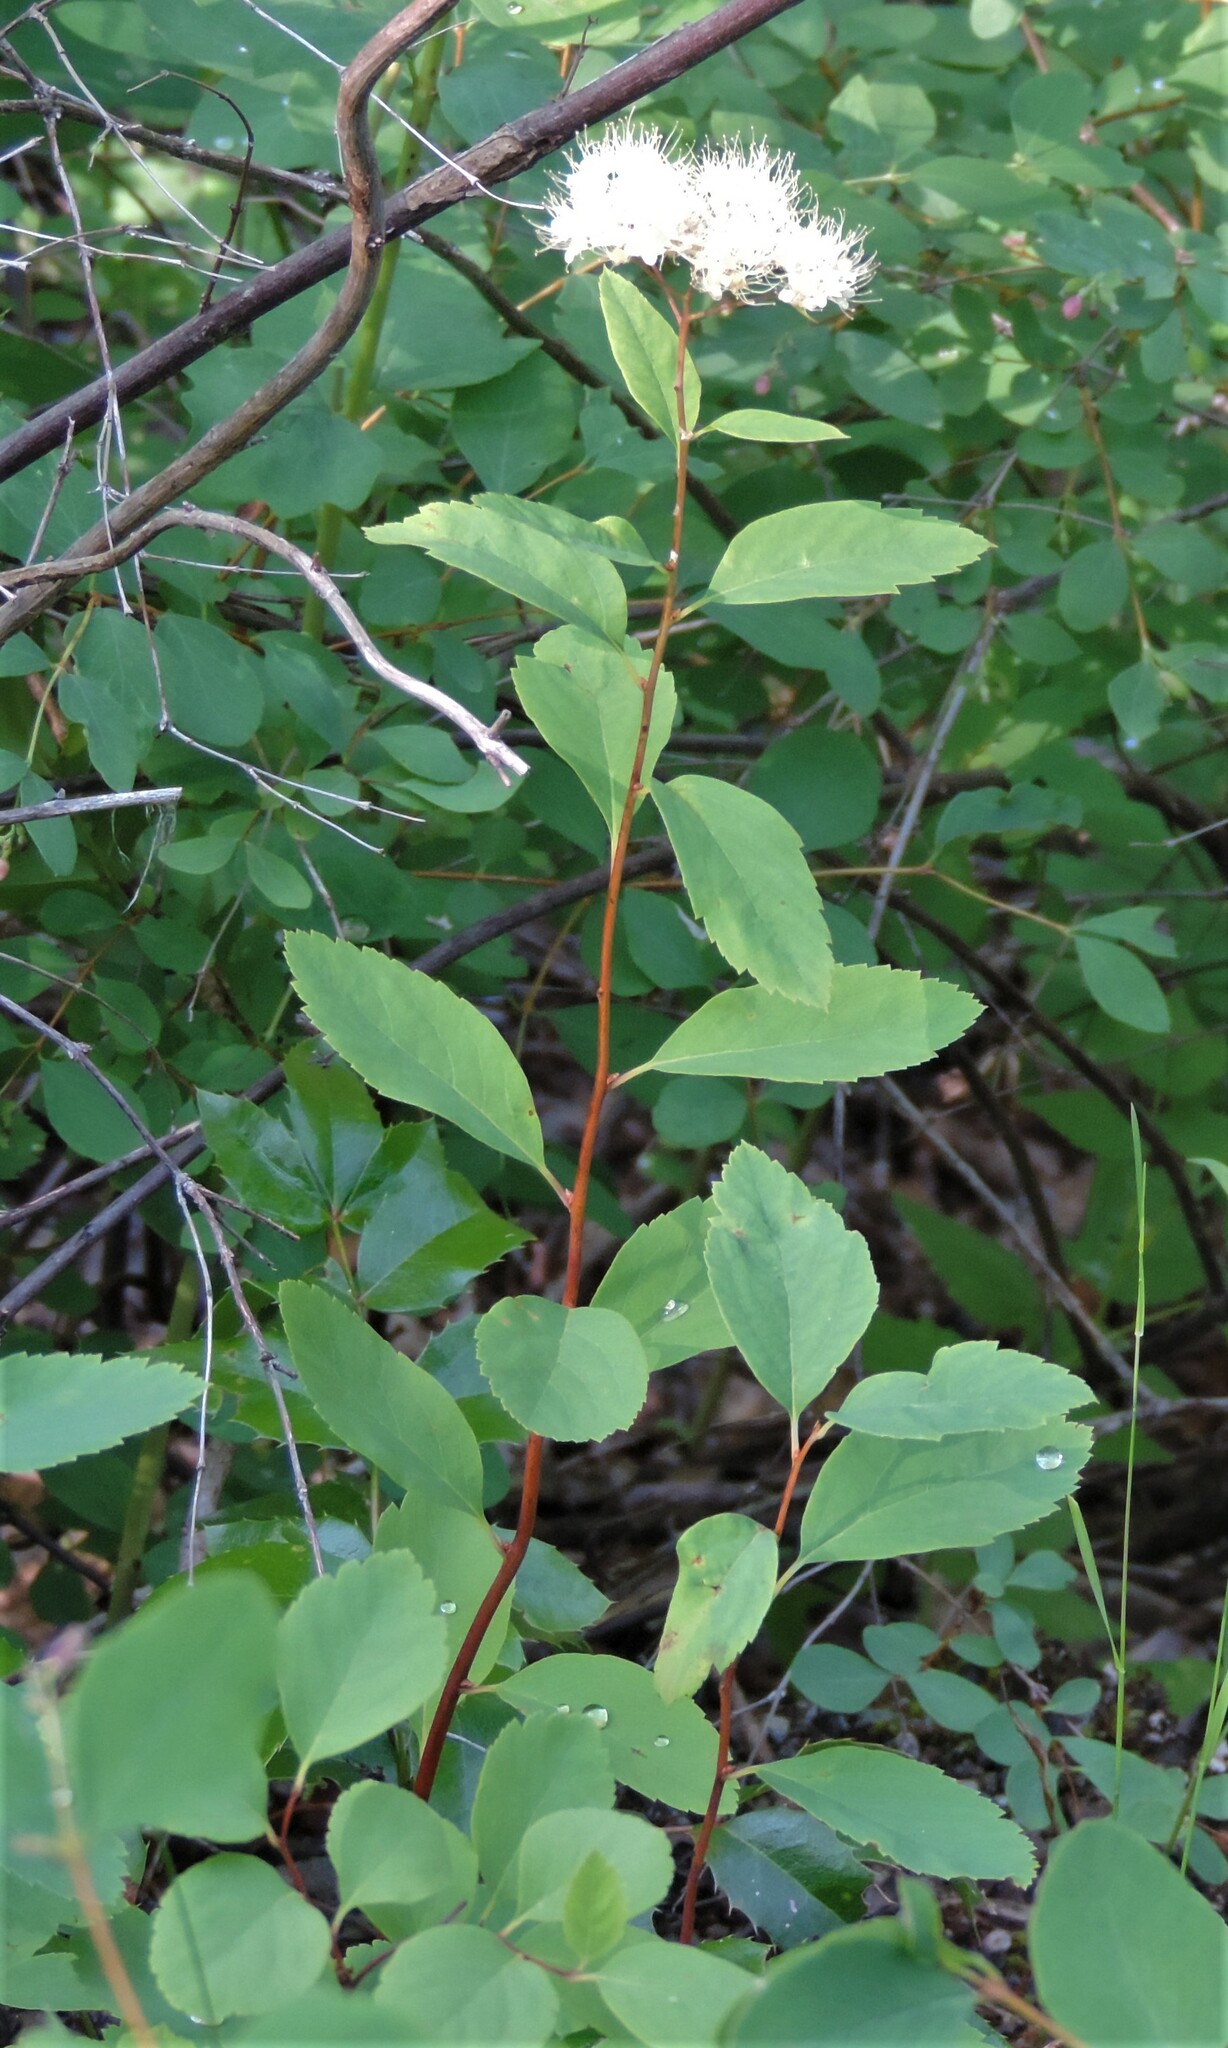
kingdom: Plantae
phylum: Tracheophyta
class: Magnoliopsida
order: Rosales
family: Rosaceae
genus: Spiraea
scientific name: Spiraea lucida
